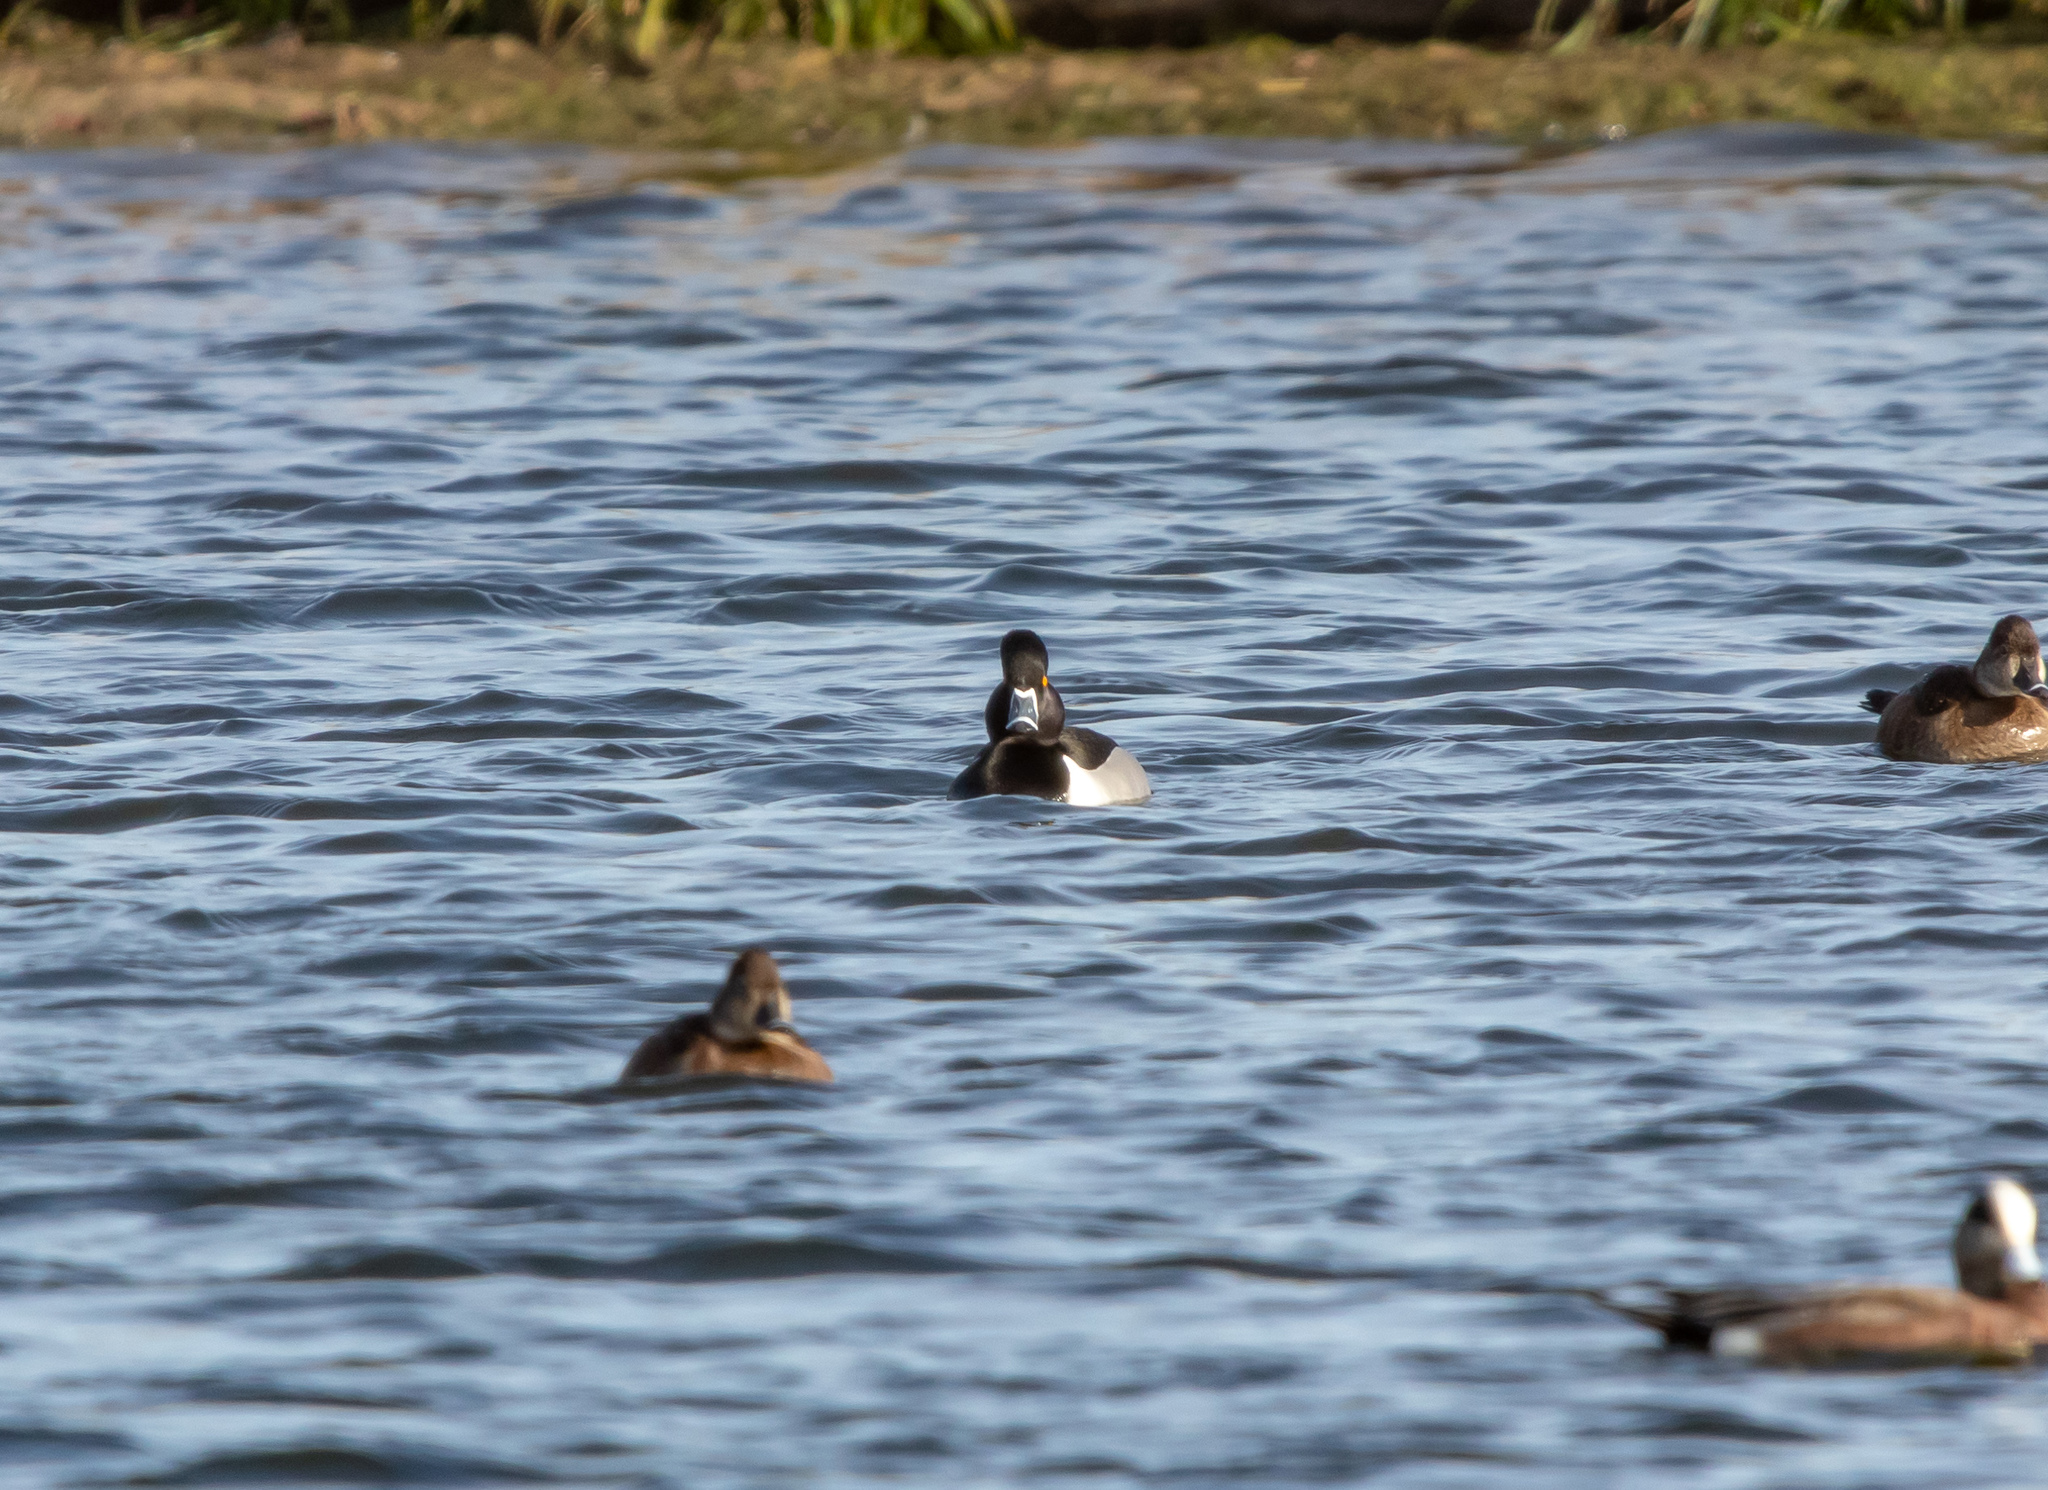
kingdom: Animalia
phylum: Chordata
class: Aves
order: Anseriformes
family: Anatidae
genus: Aythya
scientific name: Aythya collaris
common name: Ring-necked duck
